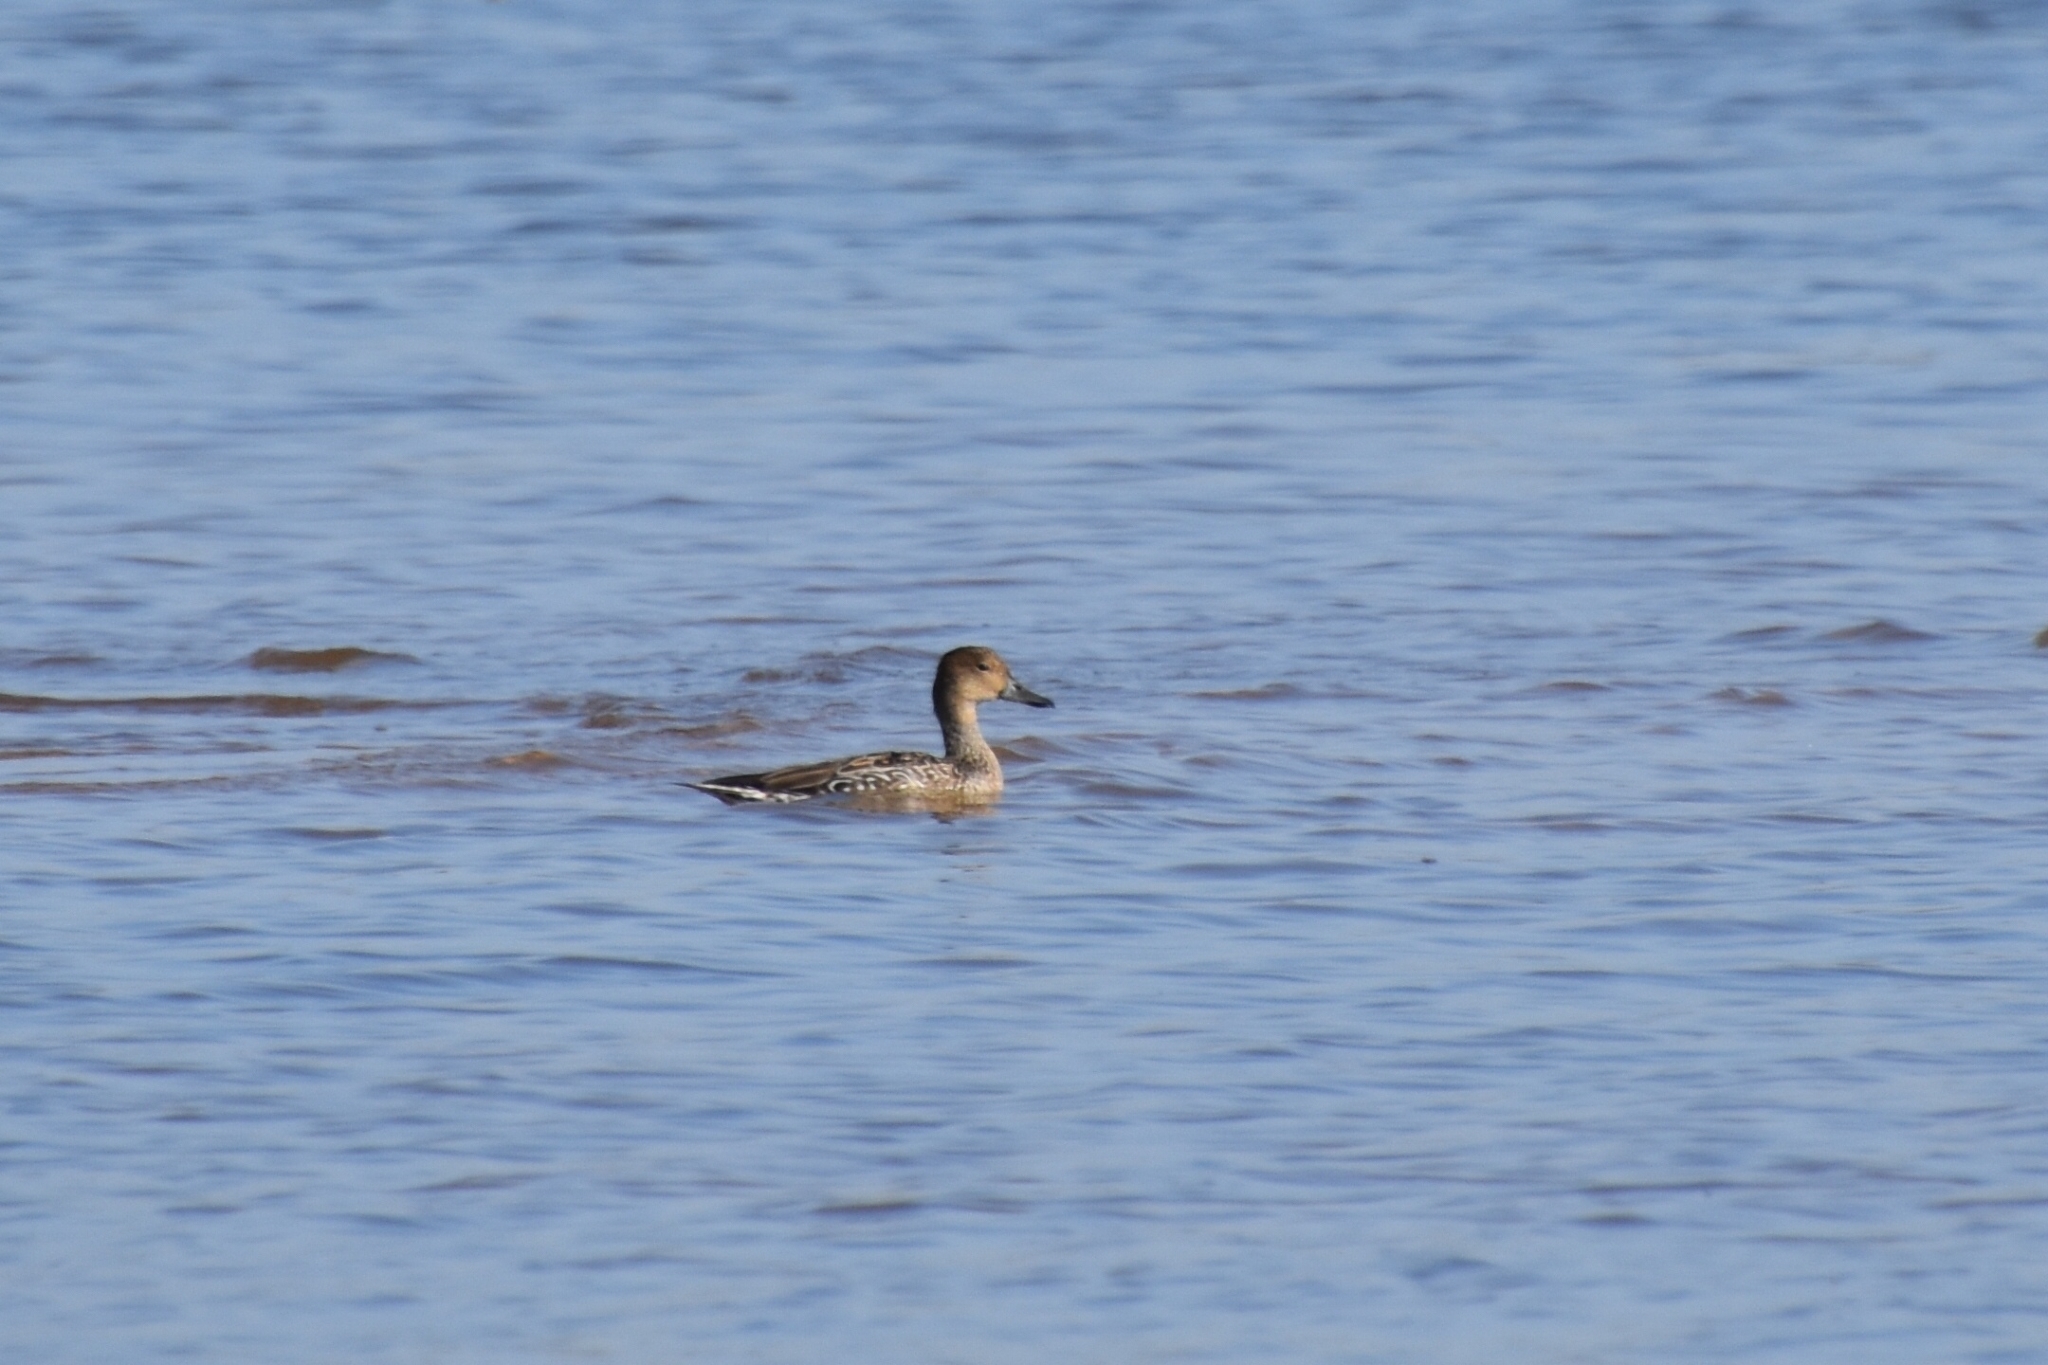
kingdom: Animalia
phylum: Chordata
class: Aves
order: Anseriformes
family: Anatidae
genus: Anas
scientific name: Anas acuta
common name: Northern pintail
